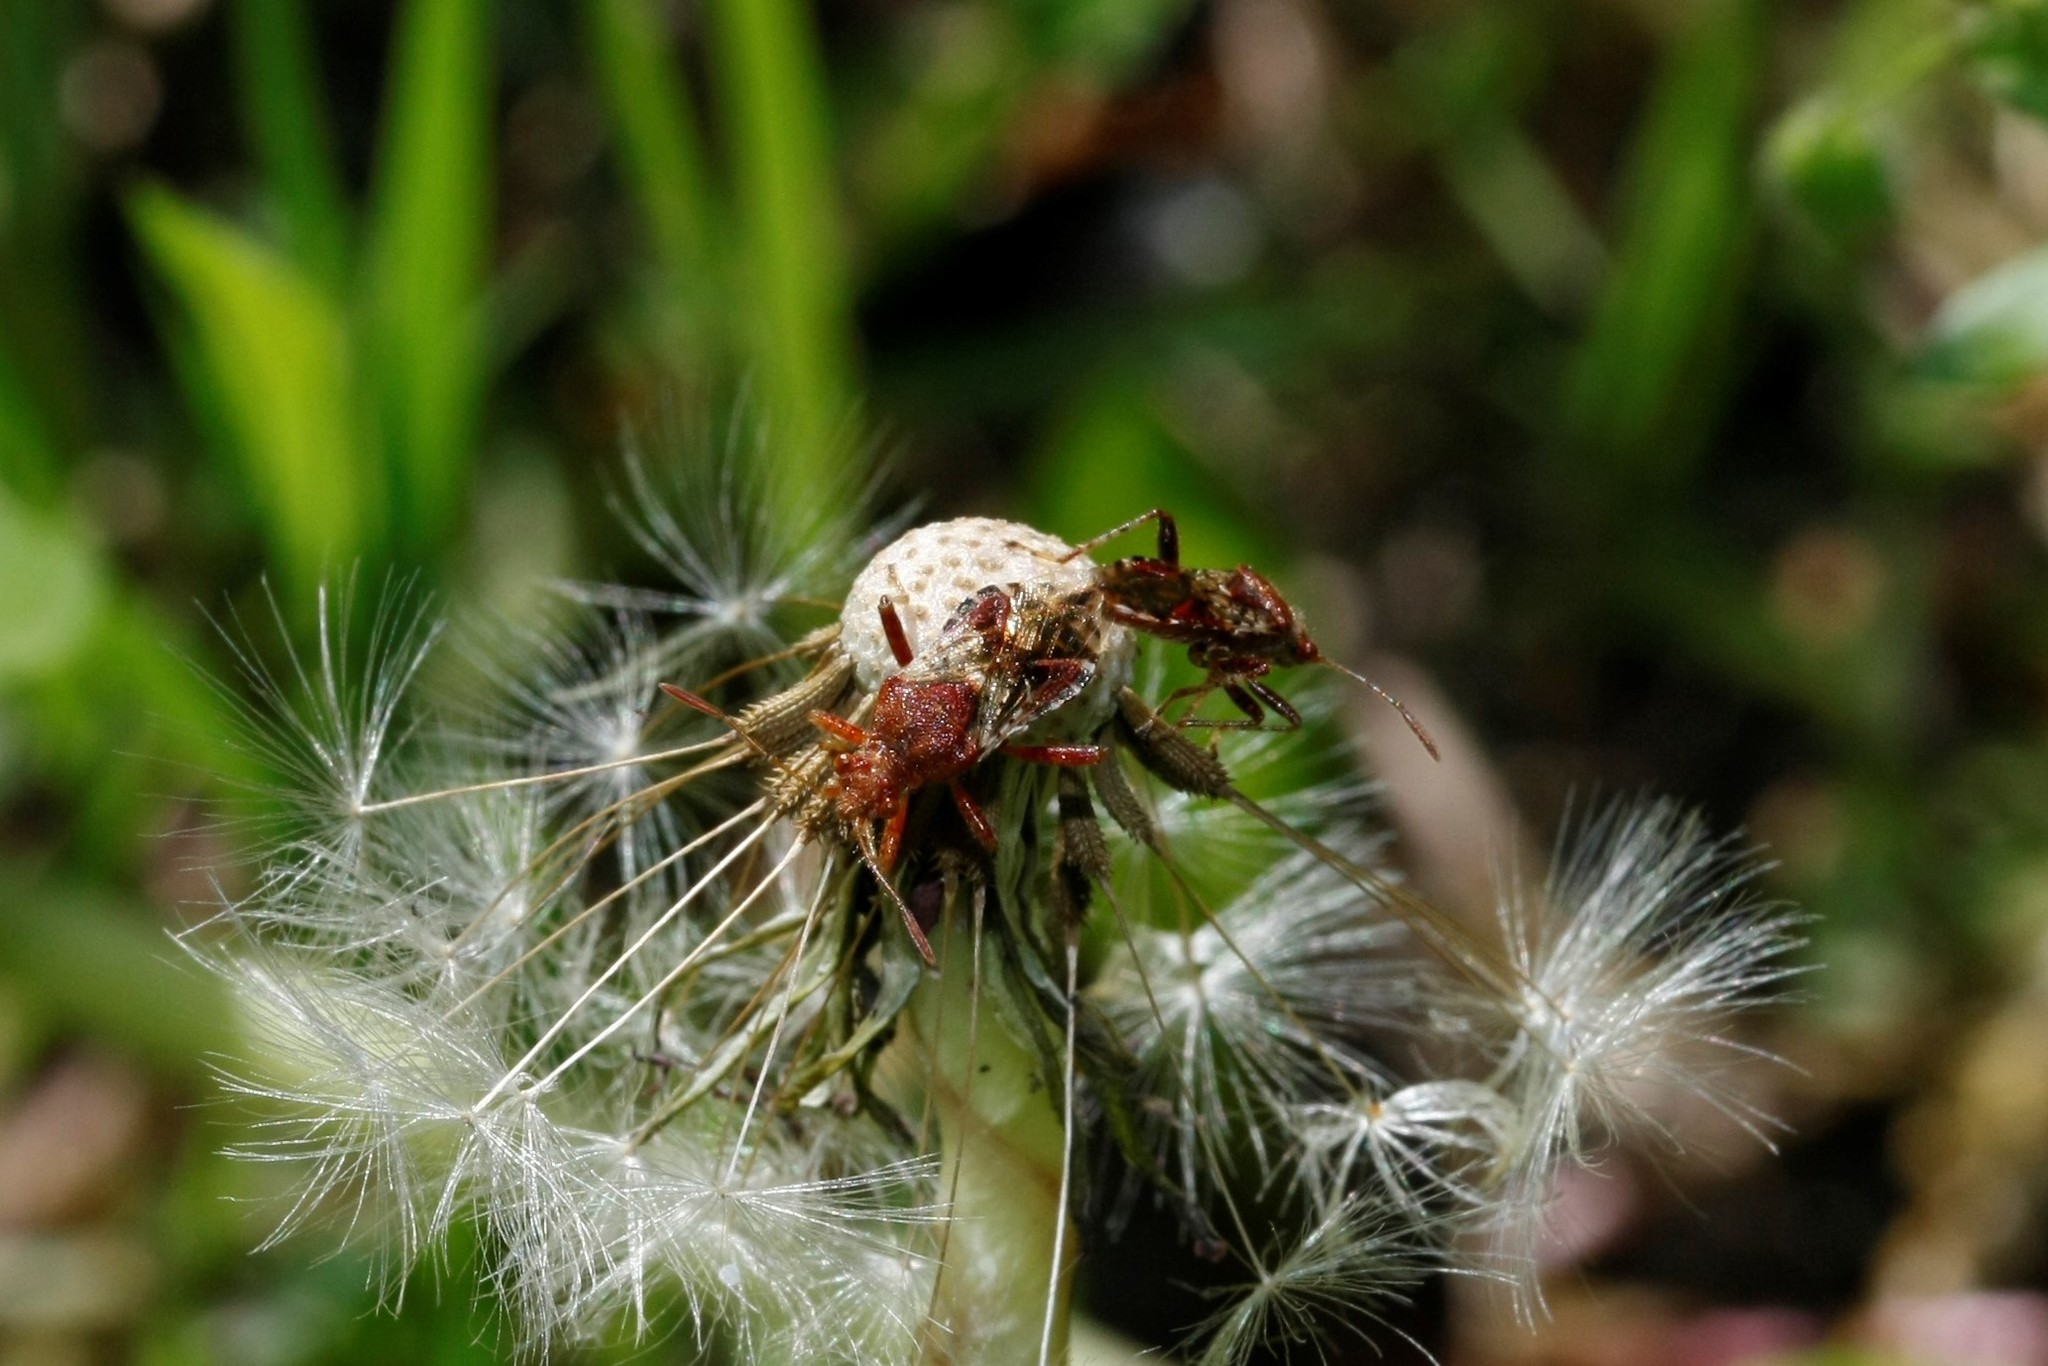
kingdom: Animalia
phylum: Arthropoda
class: Insecta
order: Hemiptera
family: Rhopalidae
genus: Rhopalus
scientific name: Rhopalus subrufus
